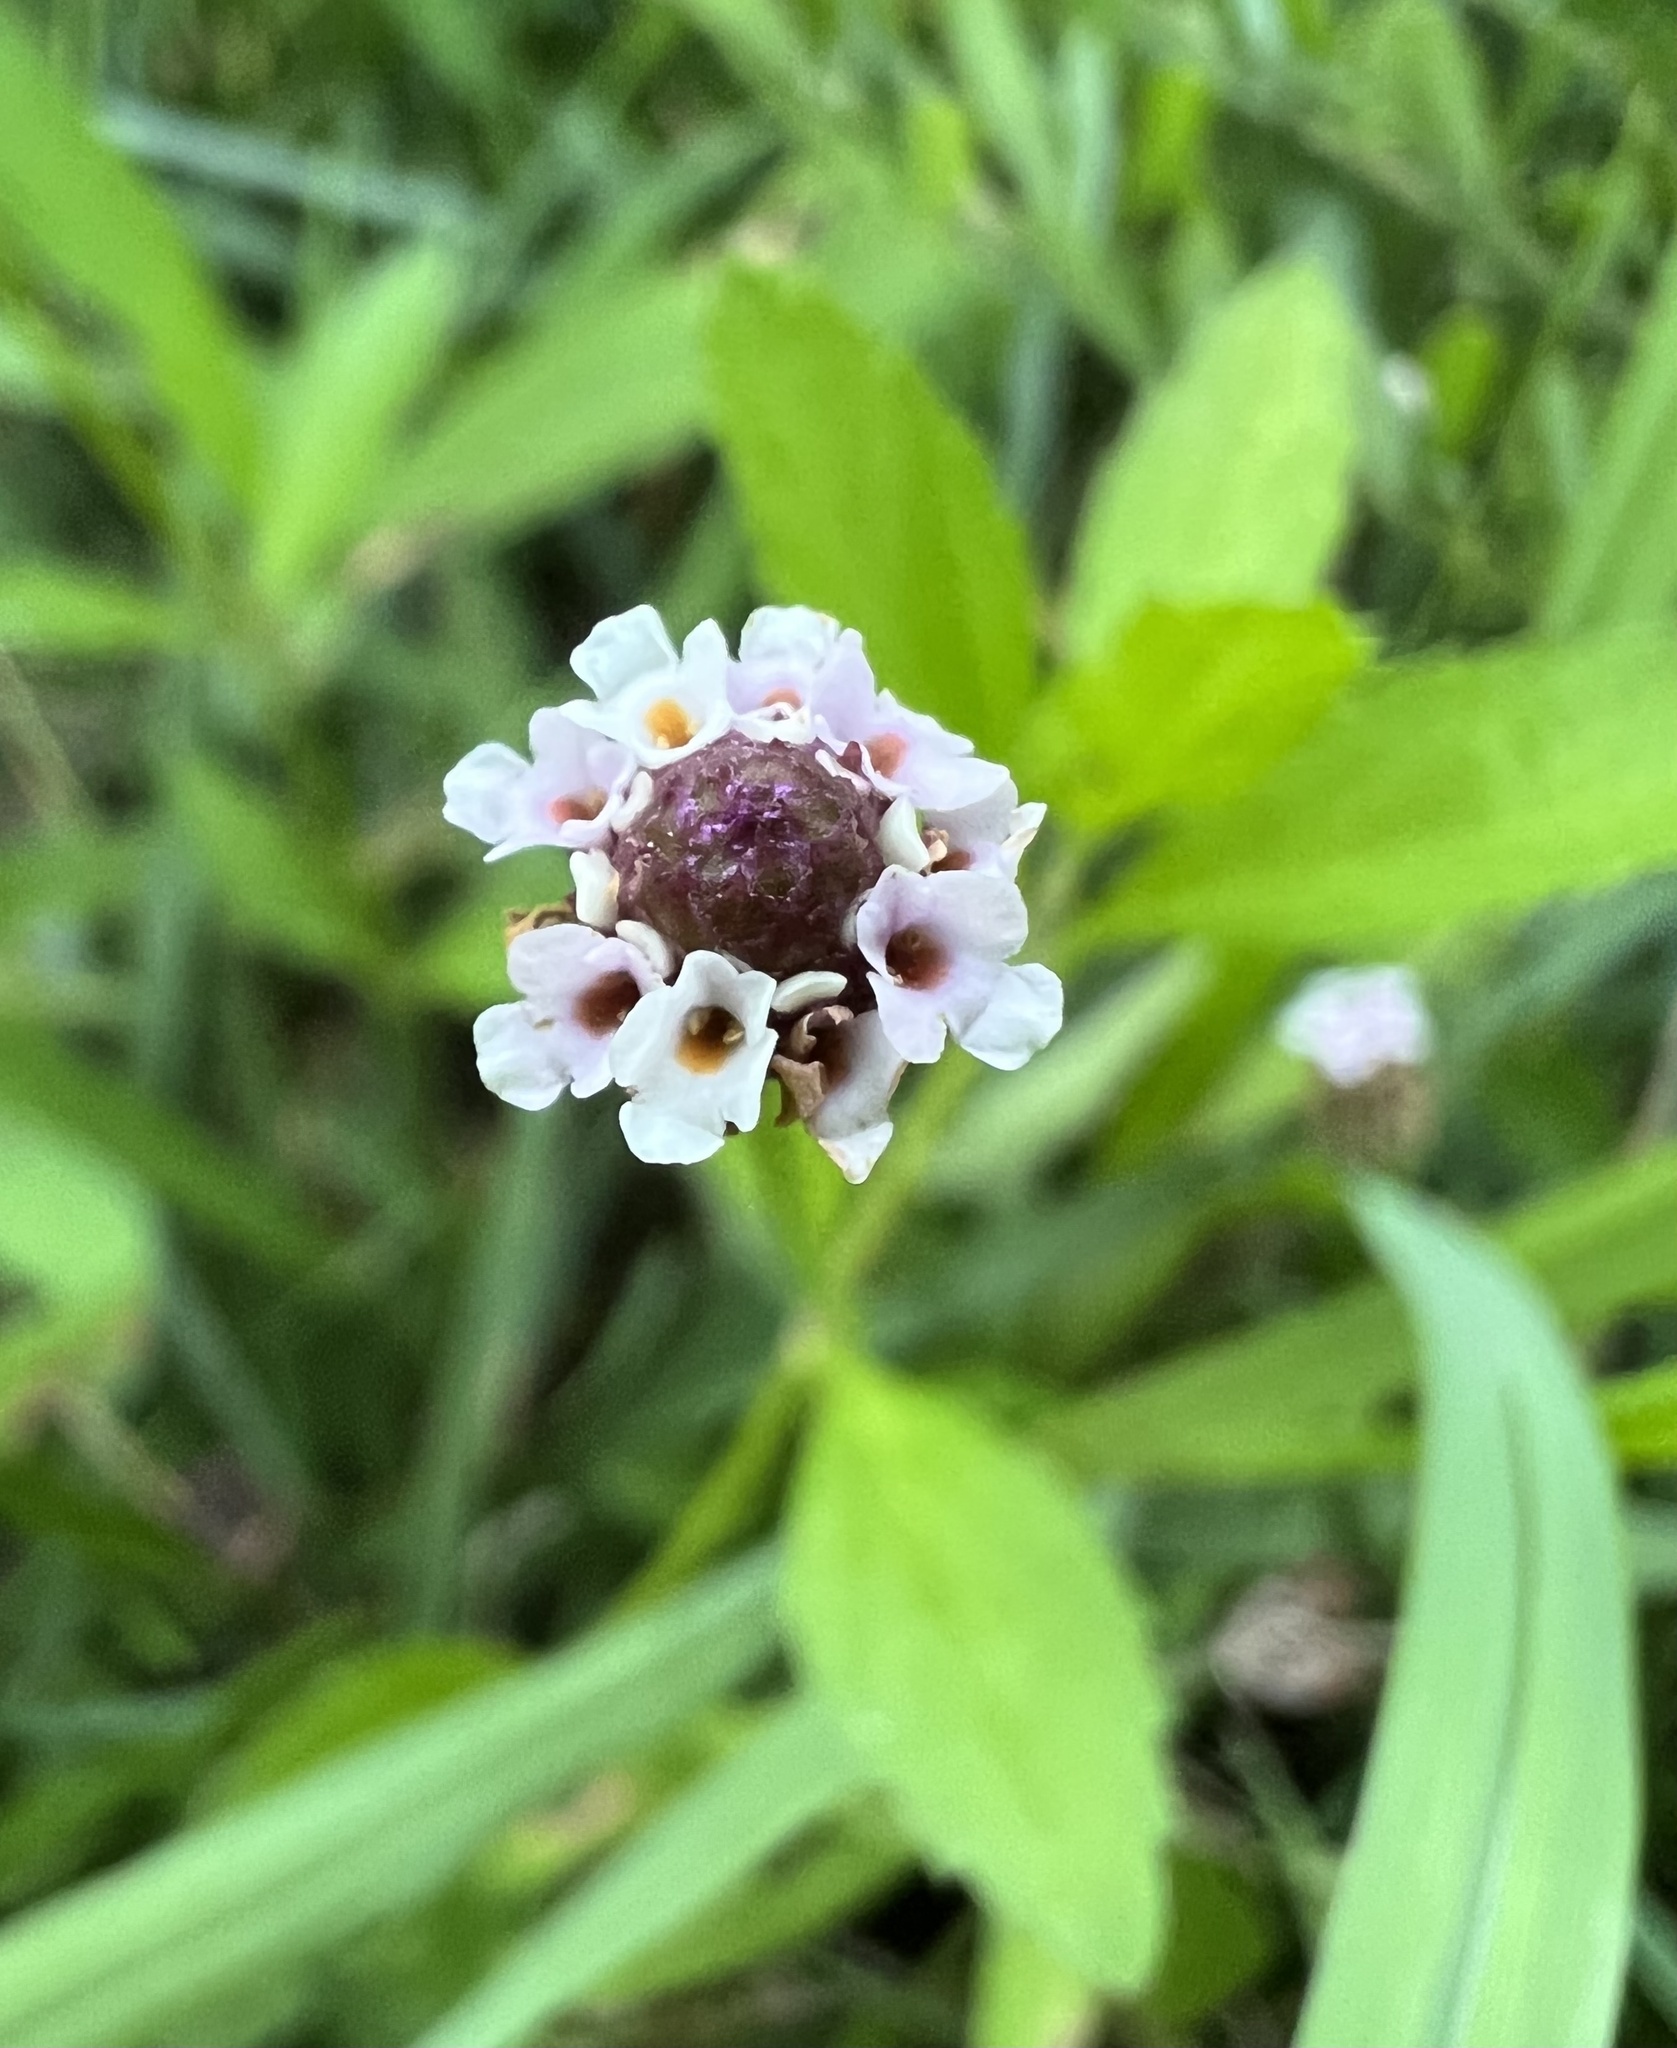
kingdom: Plantae
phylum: Tracheophyta
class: Magnoliopsida
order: Lamiales
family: Verbenaceae
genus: Phyla
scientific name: Phyla lanceolata
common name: Northern fogfruit
